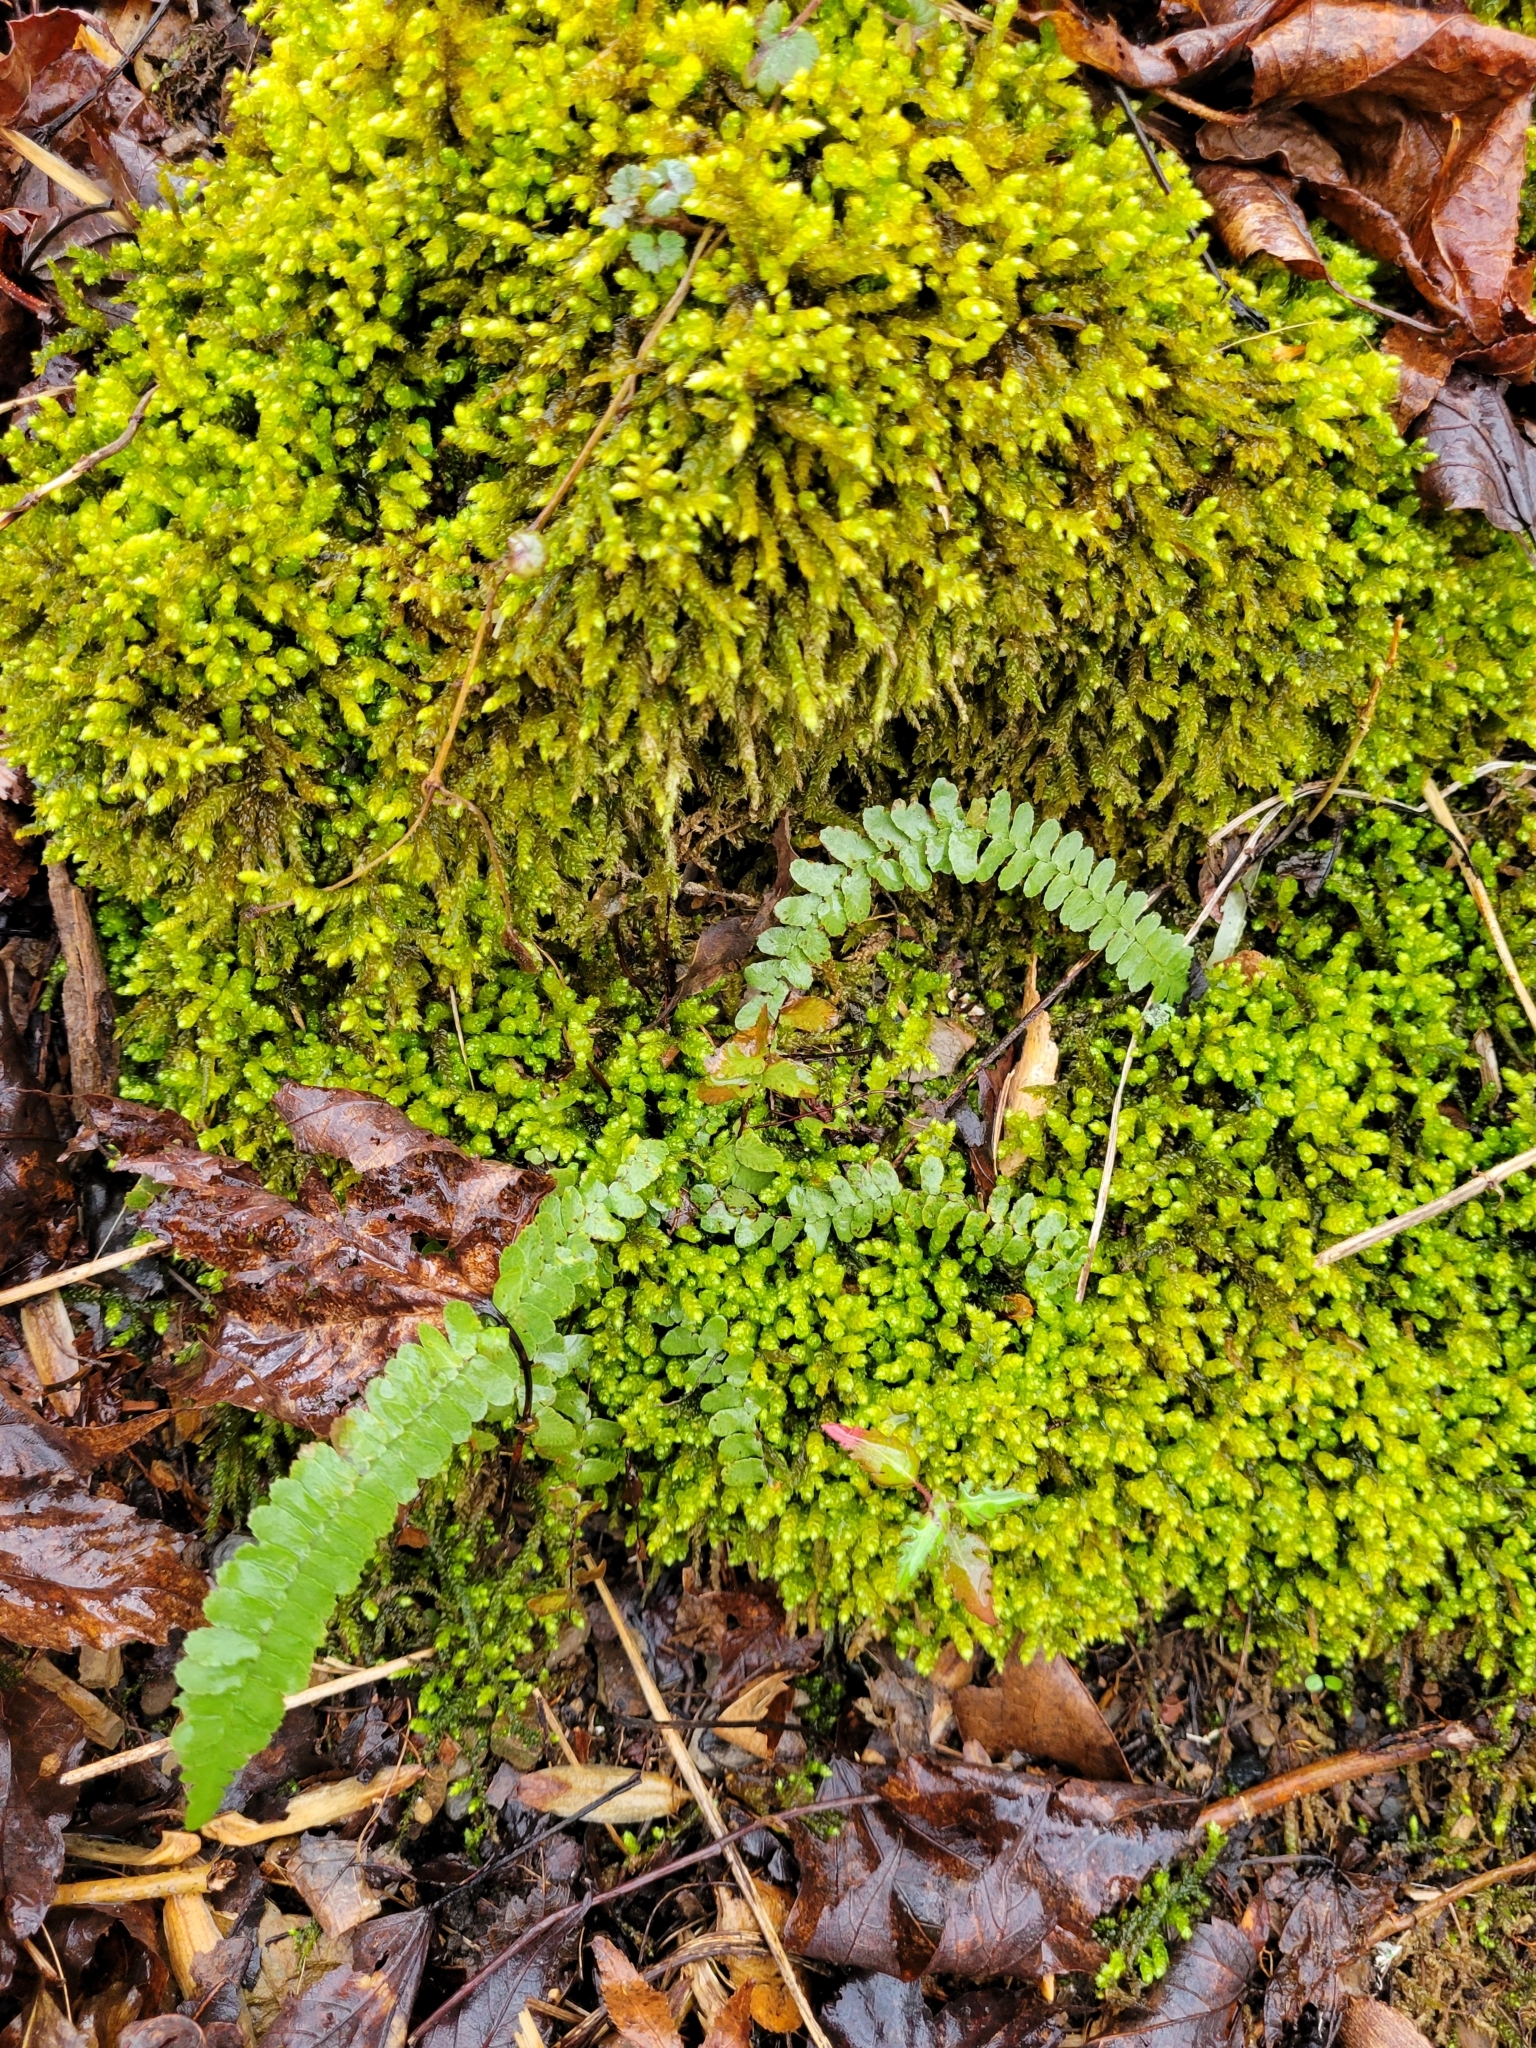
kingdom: Plantae
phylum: Tracheophyta
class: Polypodiopsida
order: Polypodiales
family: Aspleniaceae
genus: Asplenium
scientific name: Asplenium platyneuron
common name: Ebony spleenwort
